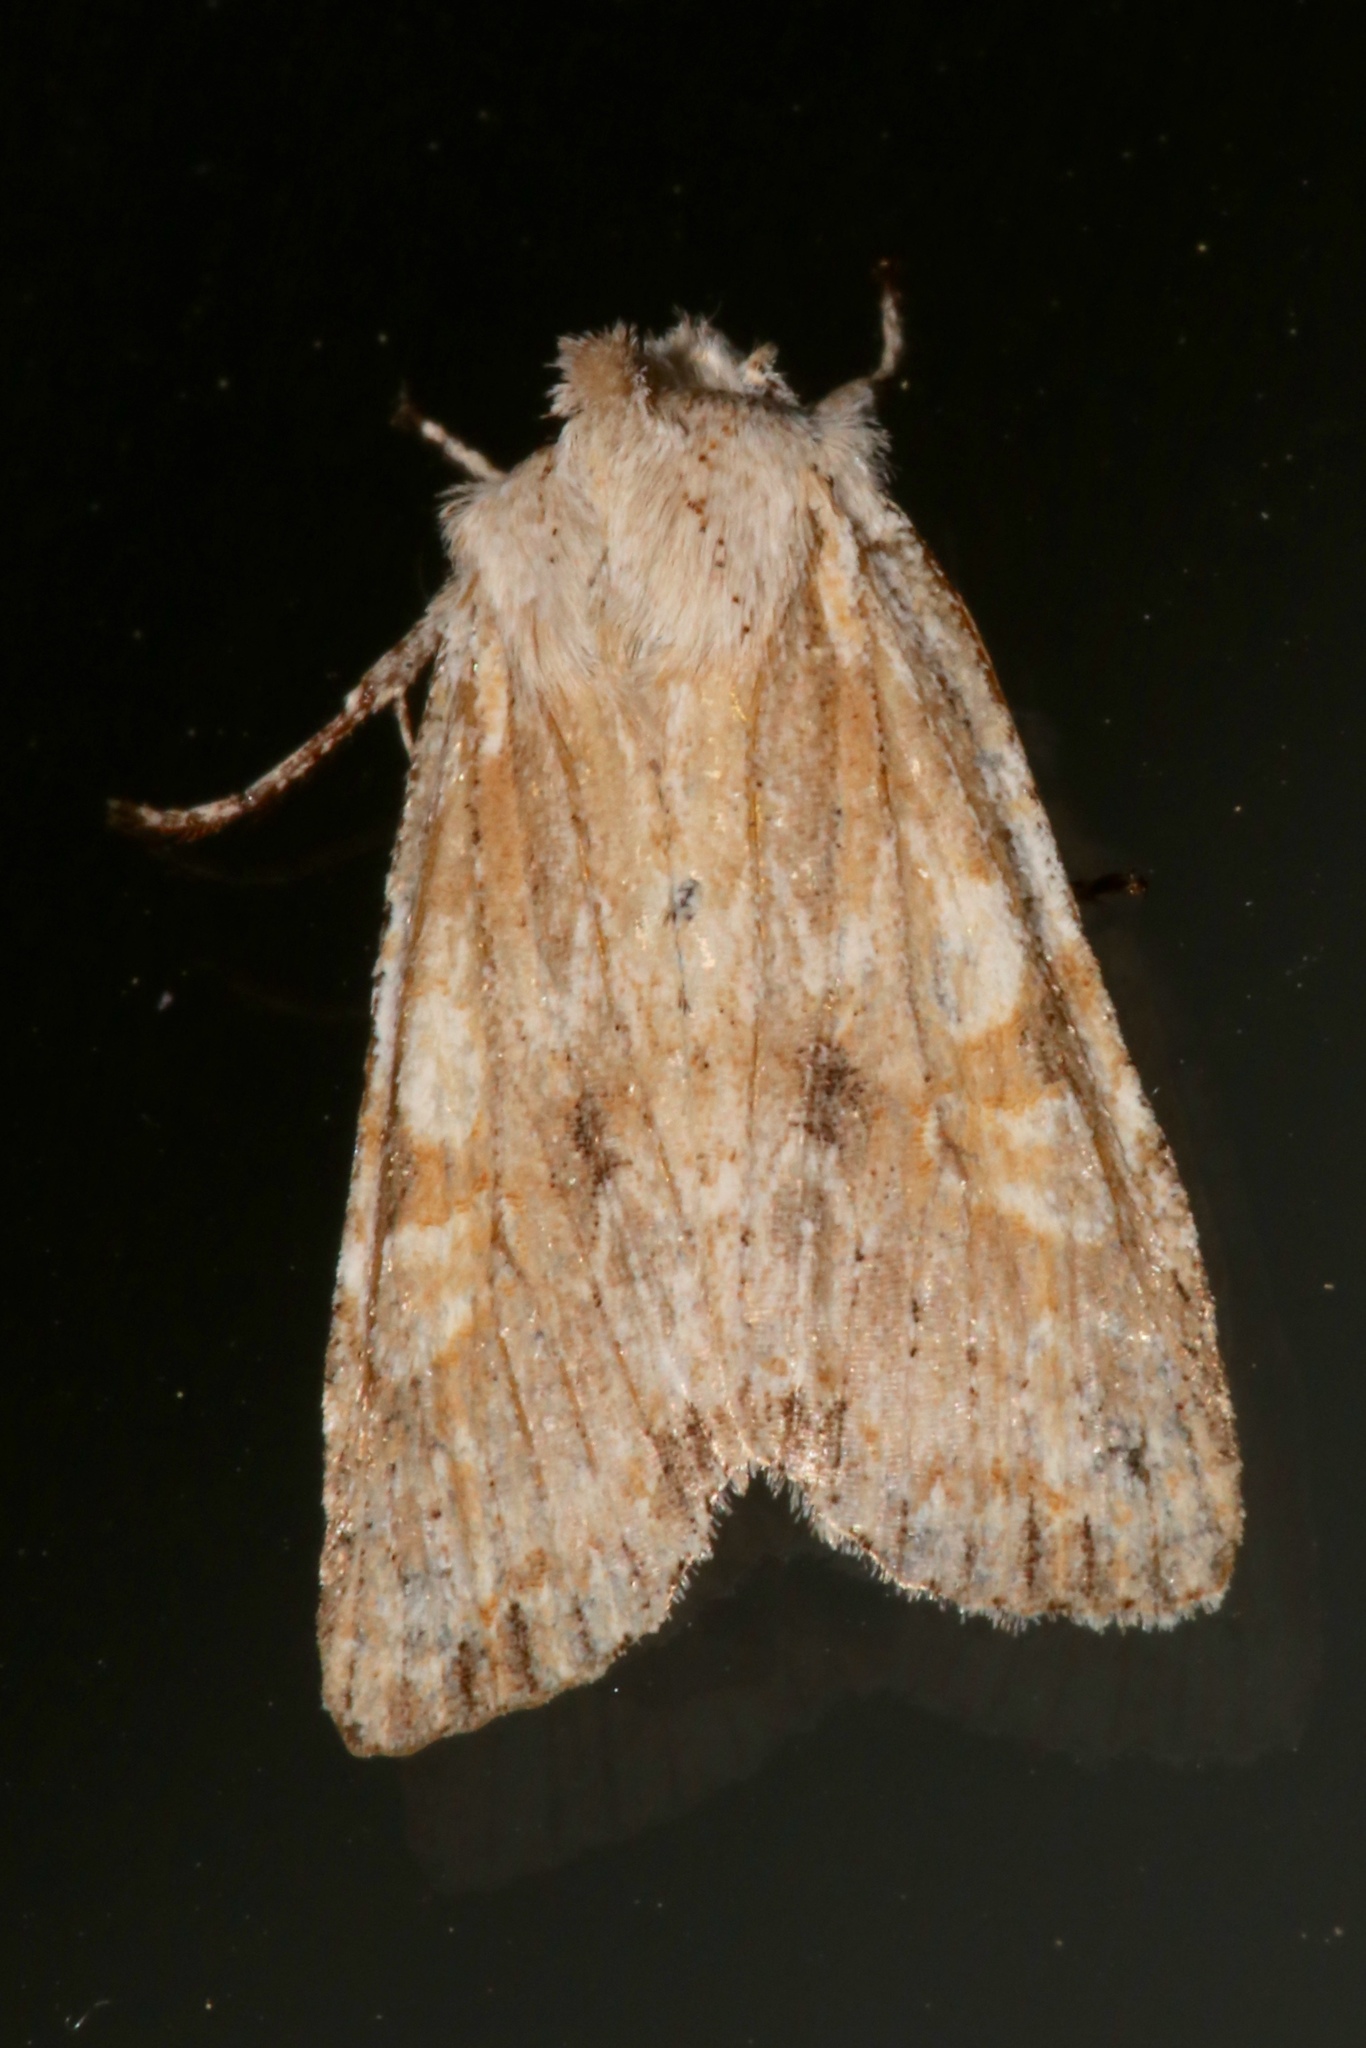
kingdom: Animalia
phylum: Arthropoda
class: Insecta
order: Lepidoptera
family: Noctuidae
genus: Lithophane
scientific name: Lithophane bethunei
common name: Bethune's pinion moth
